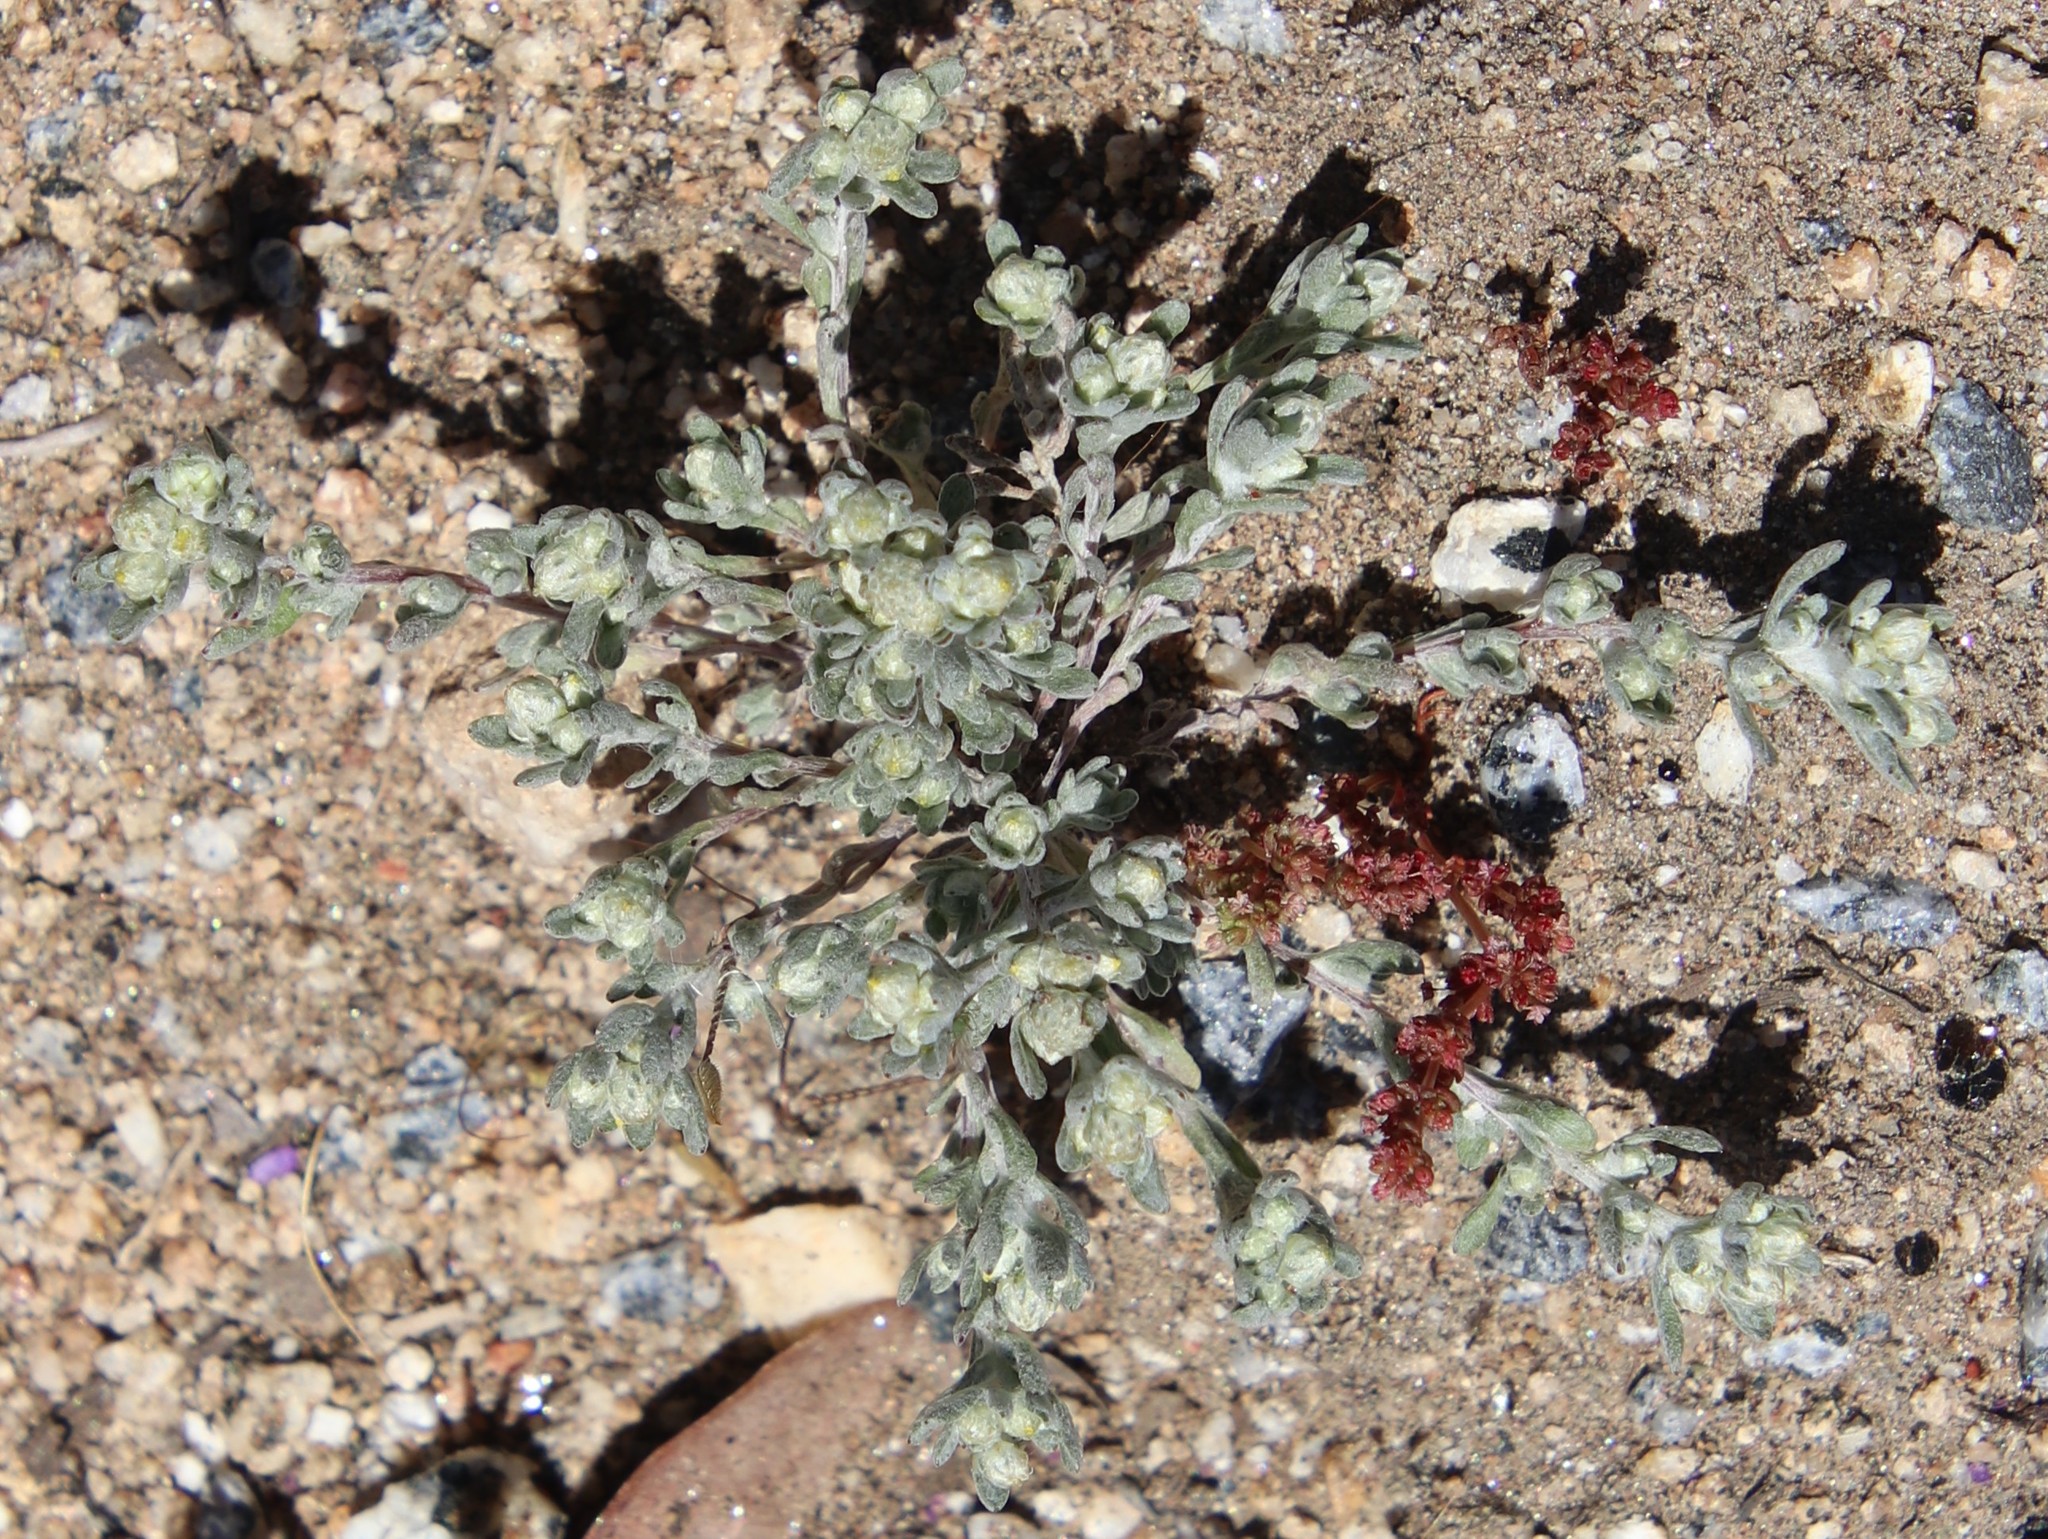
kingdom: Plantae
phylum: Tracheophyta
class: Magnoliopsida
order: Asterales
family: Asteraceae
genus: Stylocline
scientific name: Stylocline gnaphaloides
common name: Everlasting nest-straw
